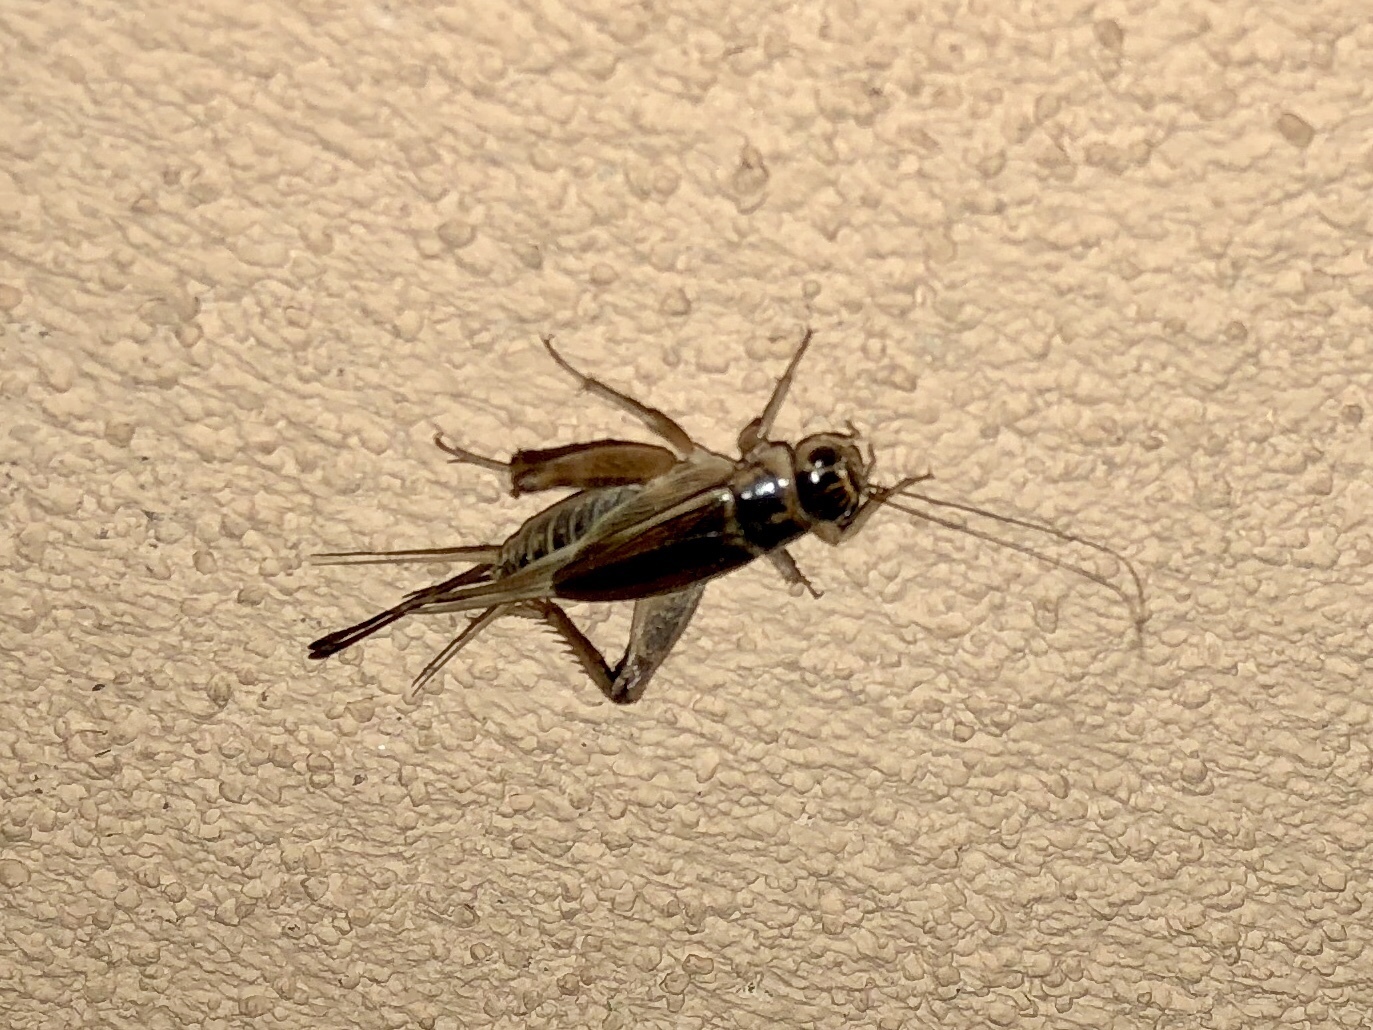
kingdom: Animalia
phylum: Arthropoda
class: Insecta
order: Orthoptera
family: Gryllidae
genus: Gryllus
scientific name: Gryllus personatus
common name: Badlands cricket
